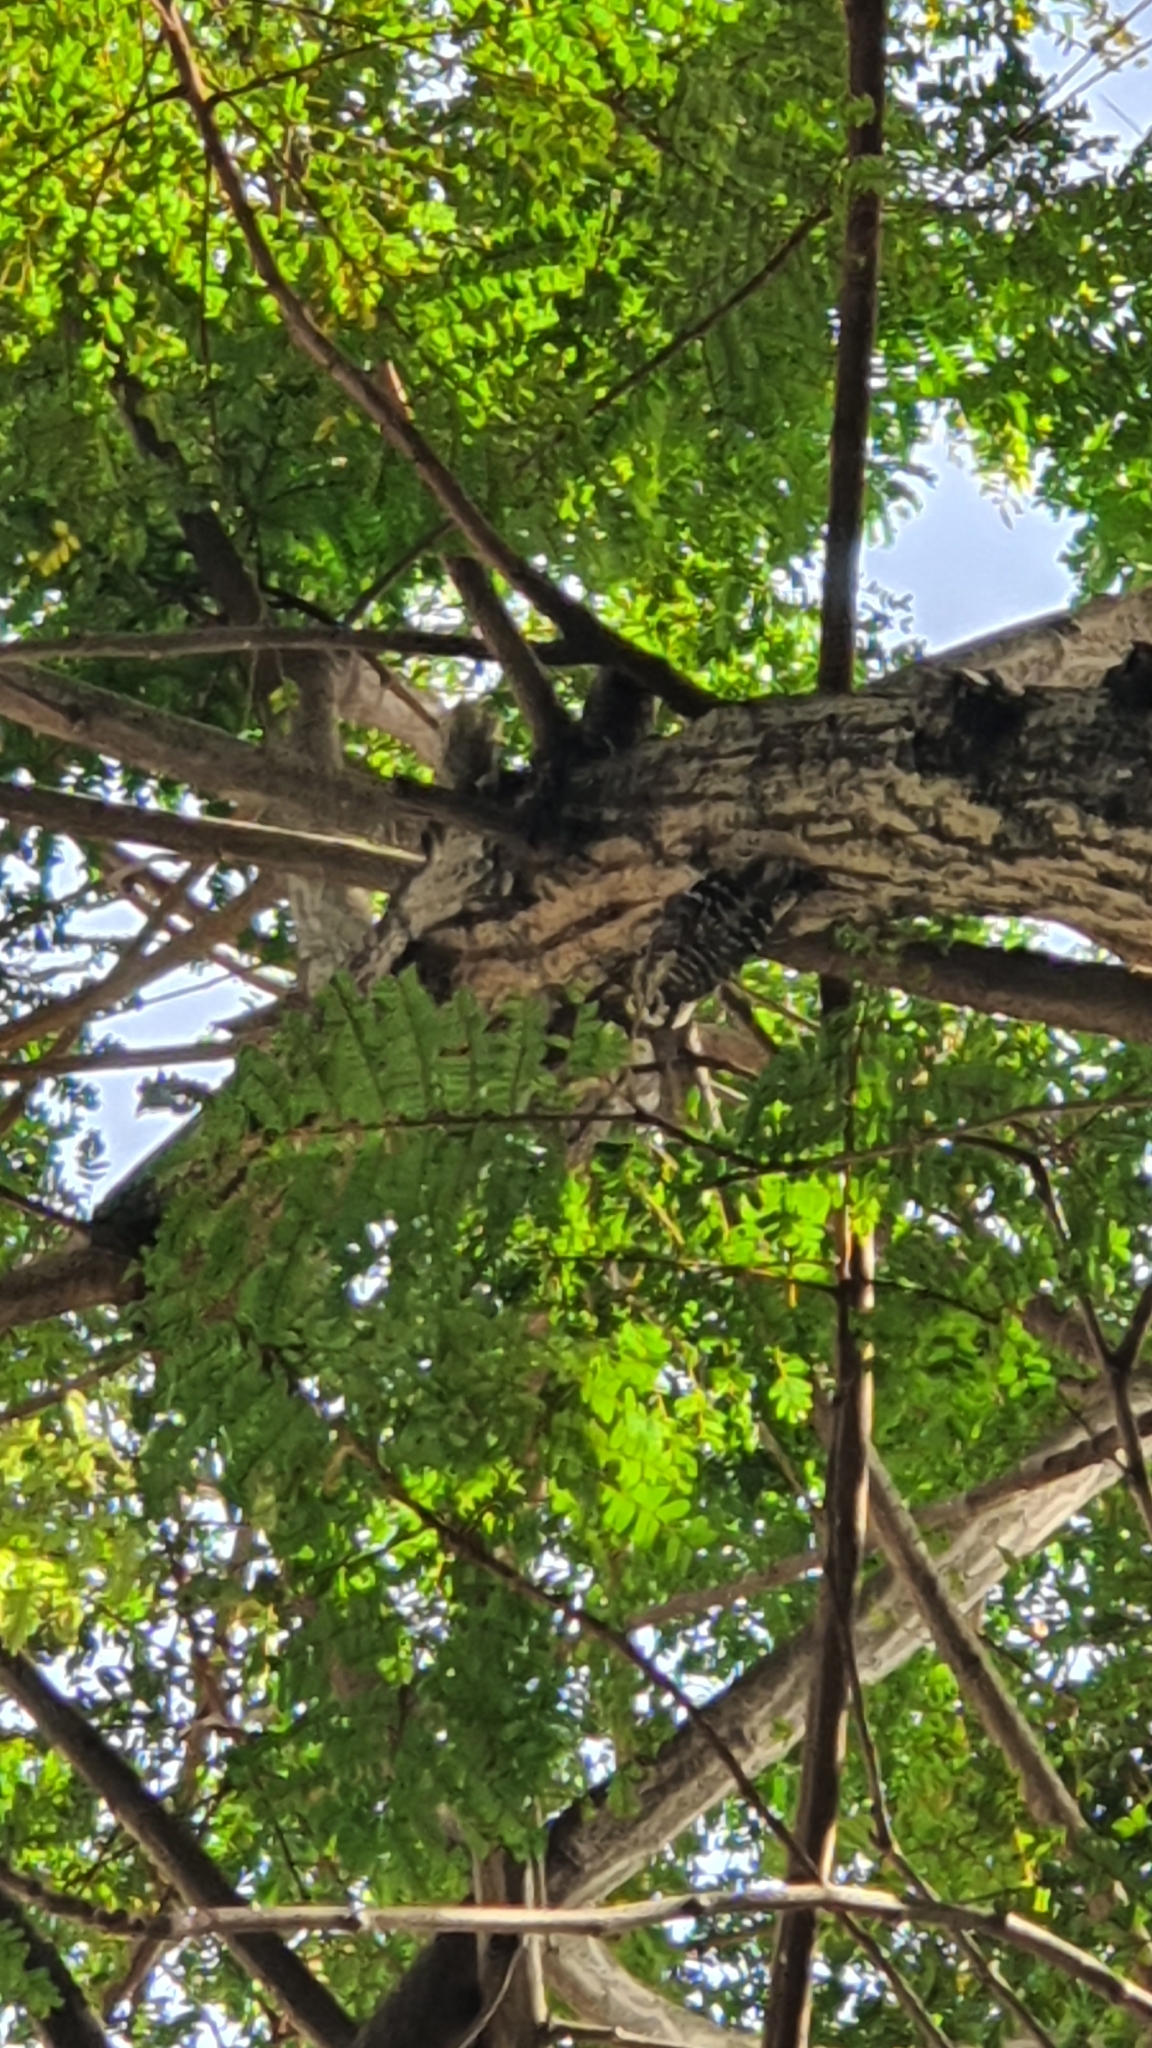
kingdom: Animalia
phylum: Chordata
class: Aves
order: Piciformes
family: Picidae
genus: Yungipicus
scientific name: Yungipicus moluccensis
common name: Sunda pygmy woodpecker
